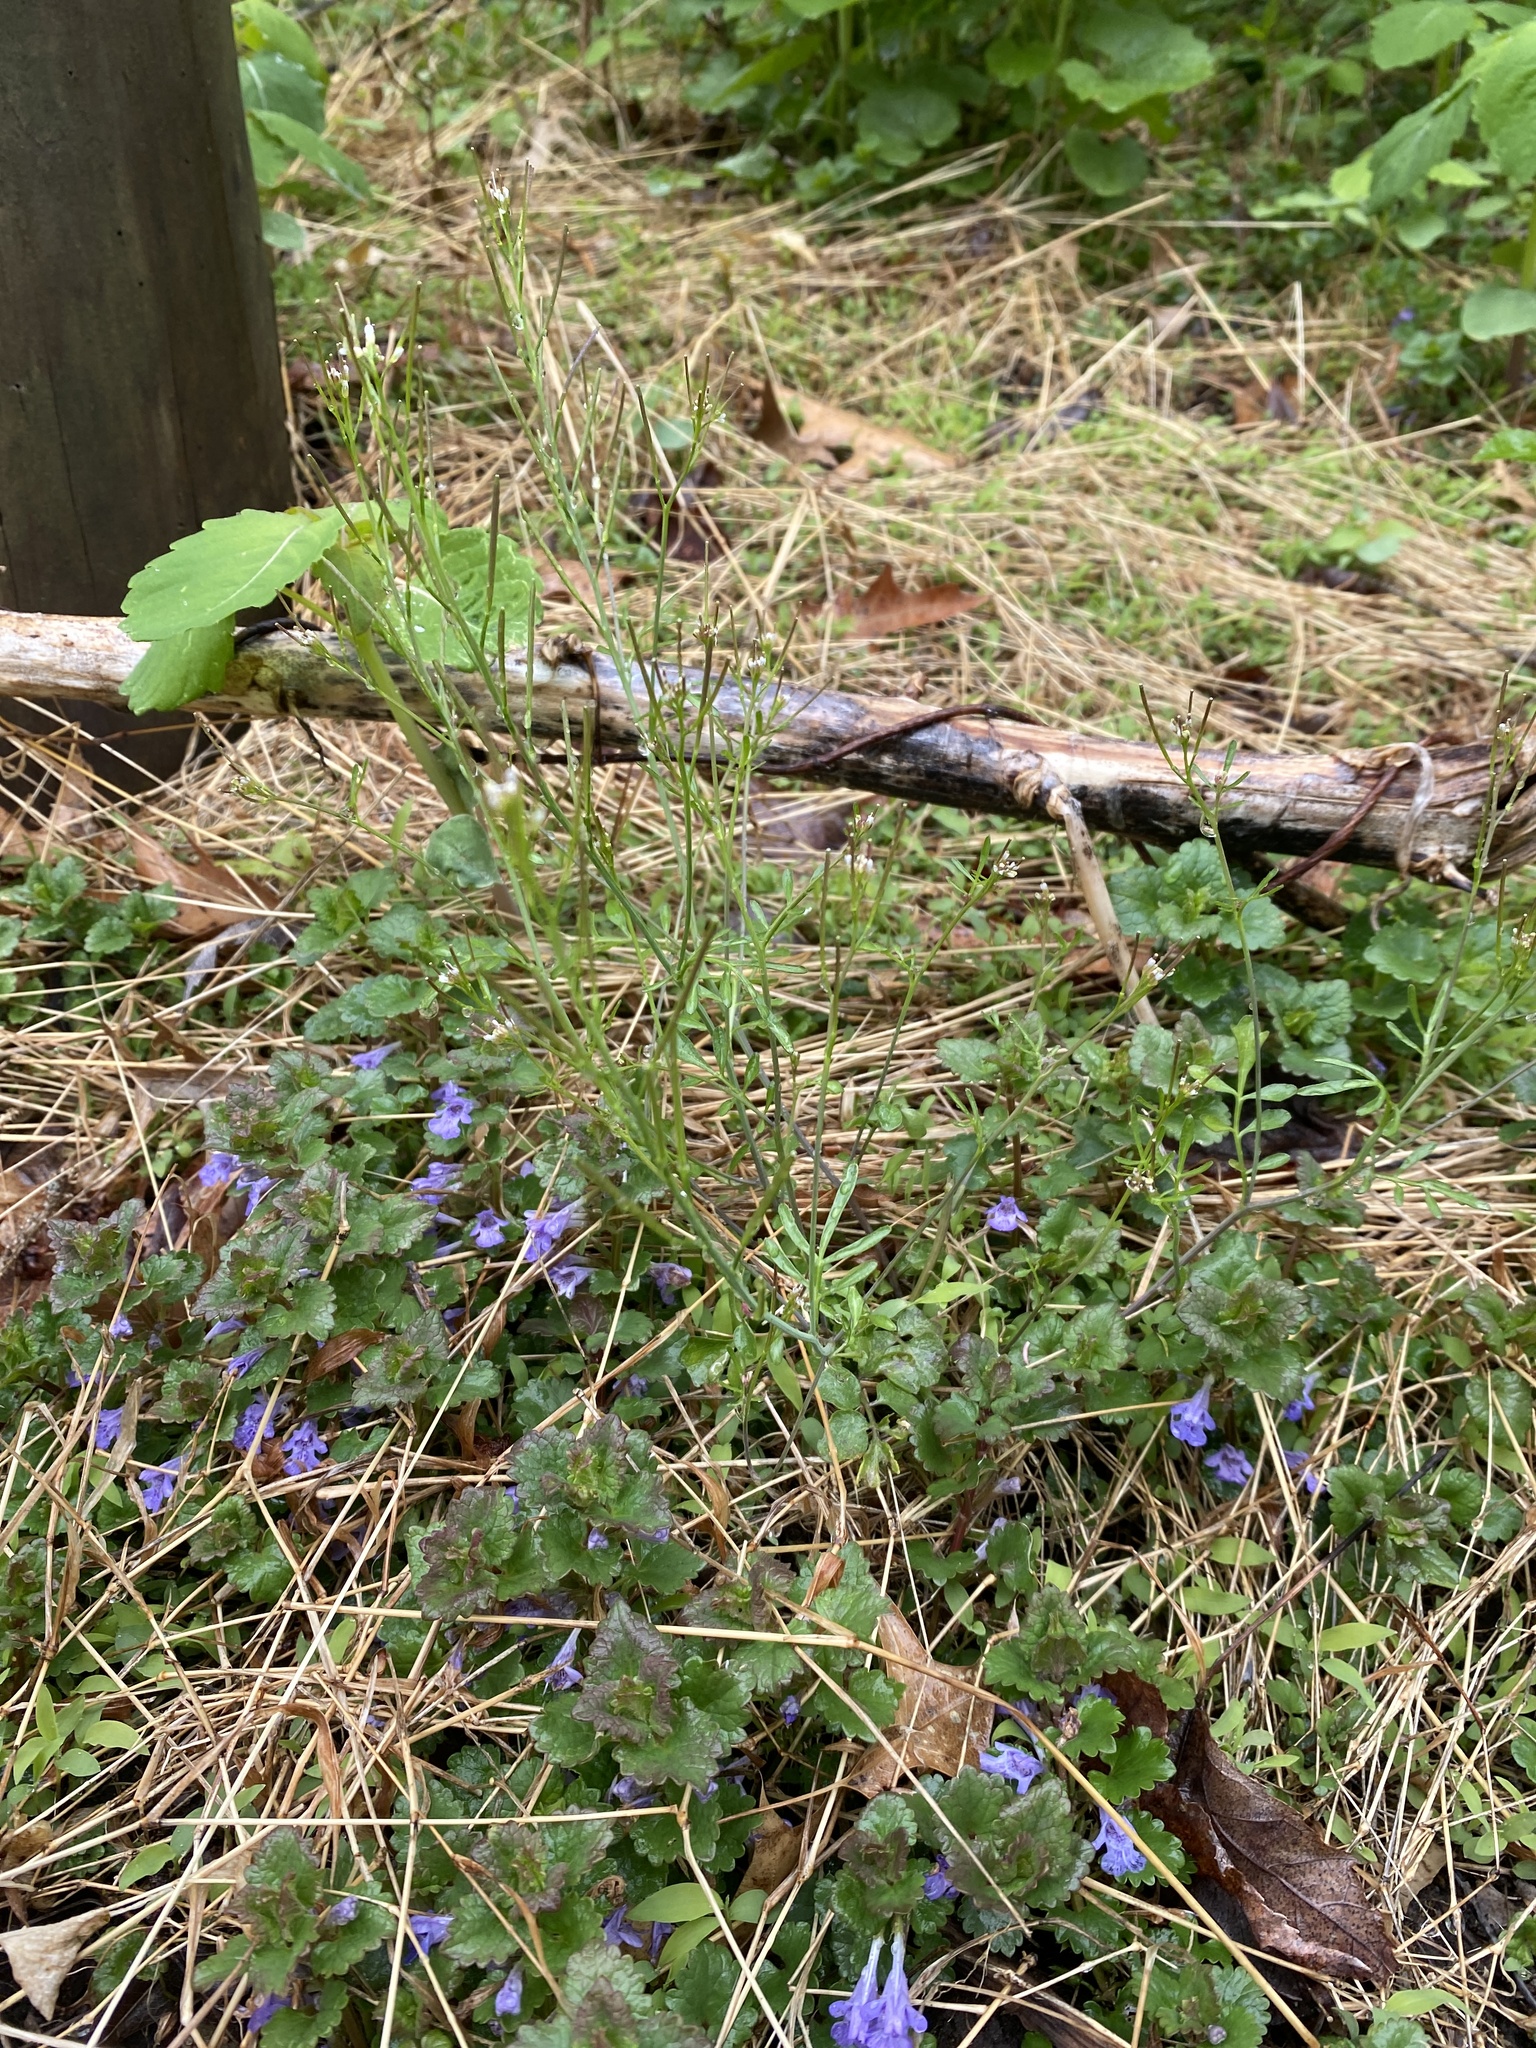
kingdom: Plantae
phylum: Tracheophyta
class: Magnoliopsida
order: Brassicales
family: Brassicaceae
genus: Cardamine
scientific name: Cardamine hirsuta
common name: Hairy bittercress
